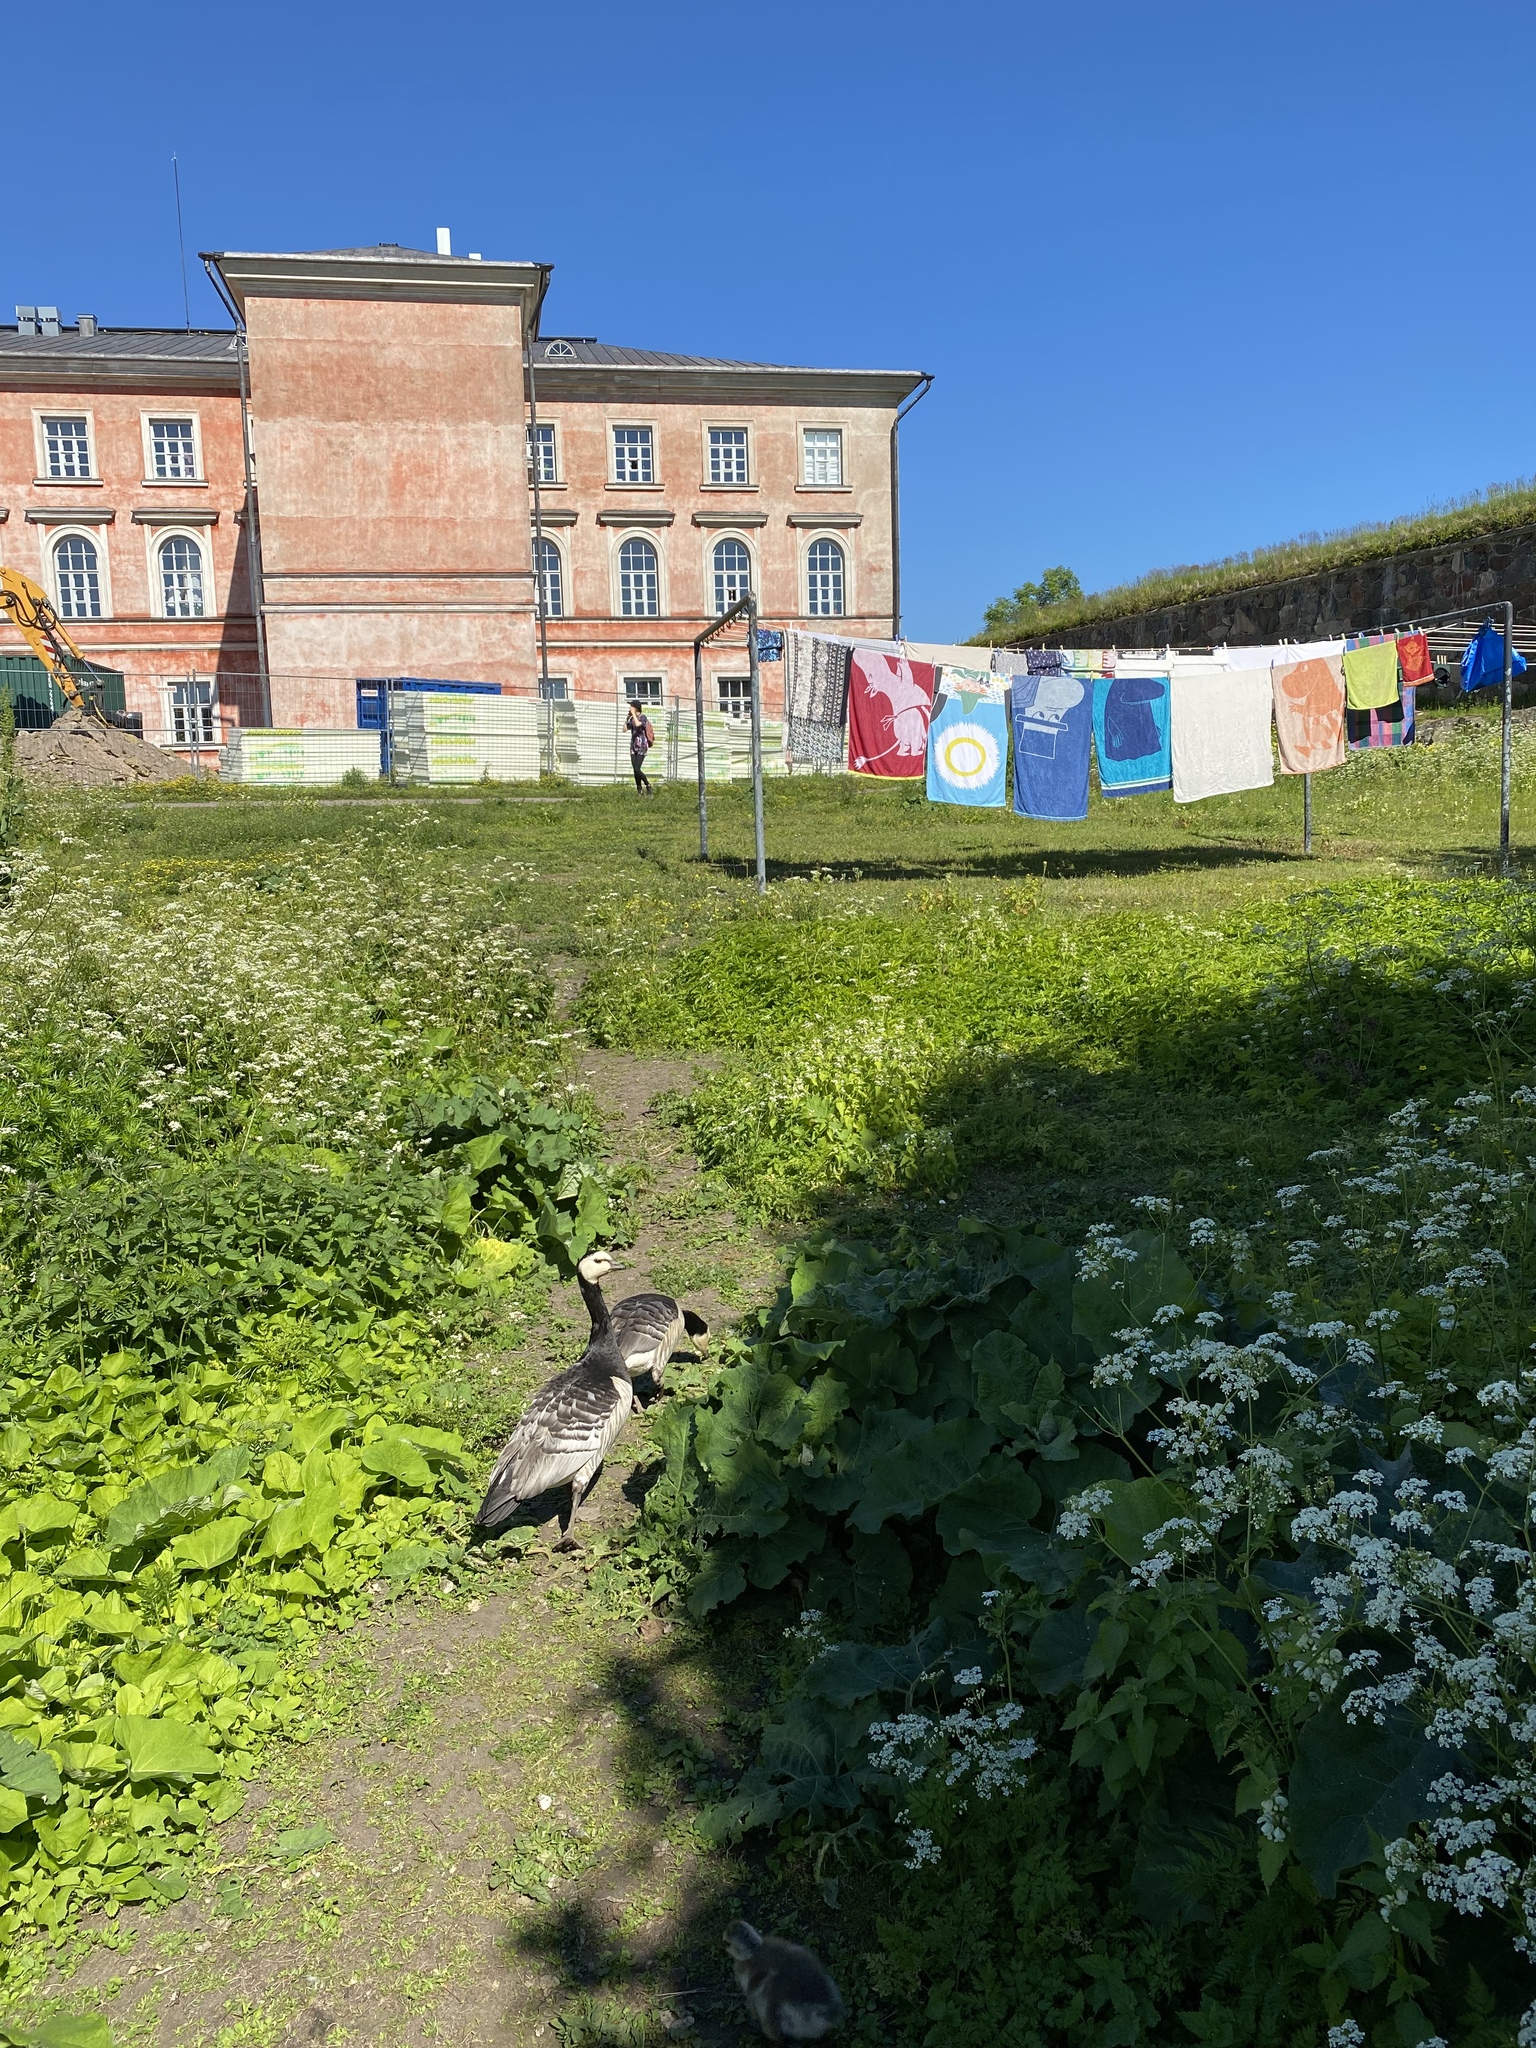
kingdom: Animalia
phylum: Chordata
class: Aves
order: Anseriformes
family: Anatidae
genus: Branta
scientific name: Branta leucopsis
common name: Barnacle goose
